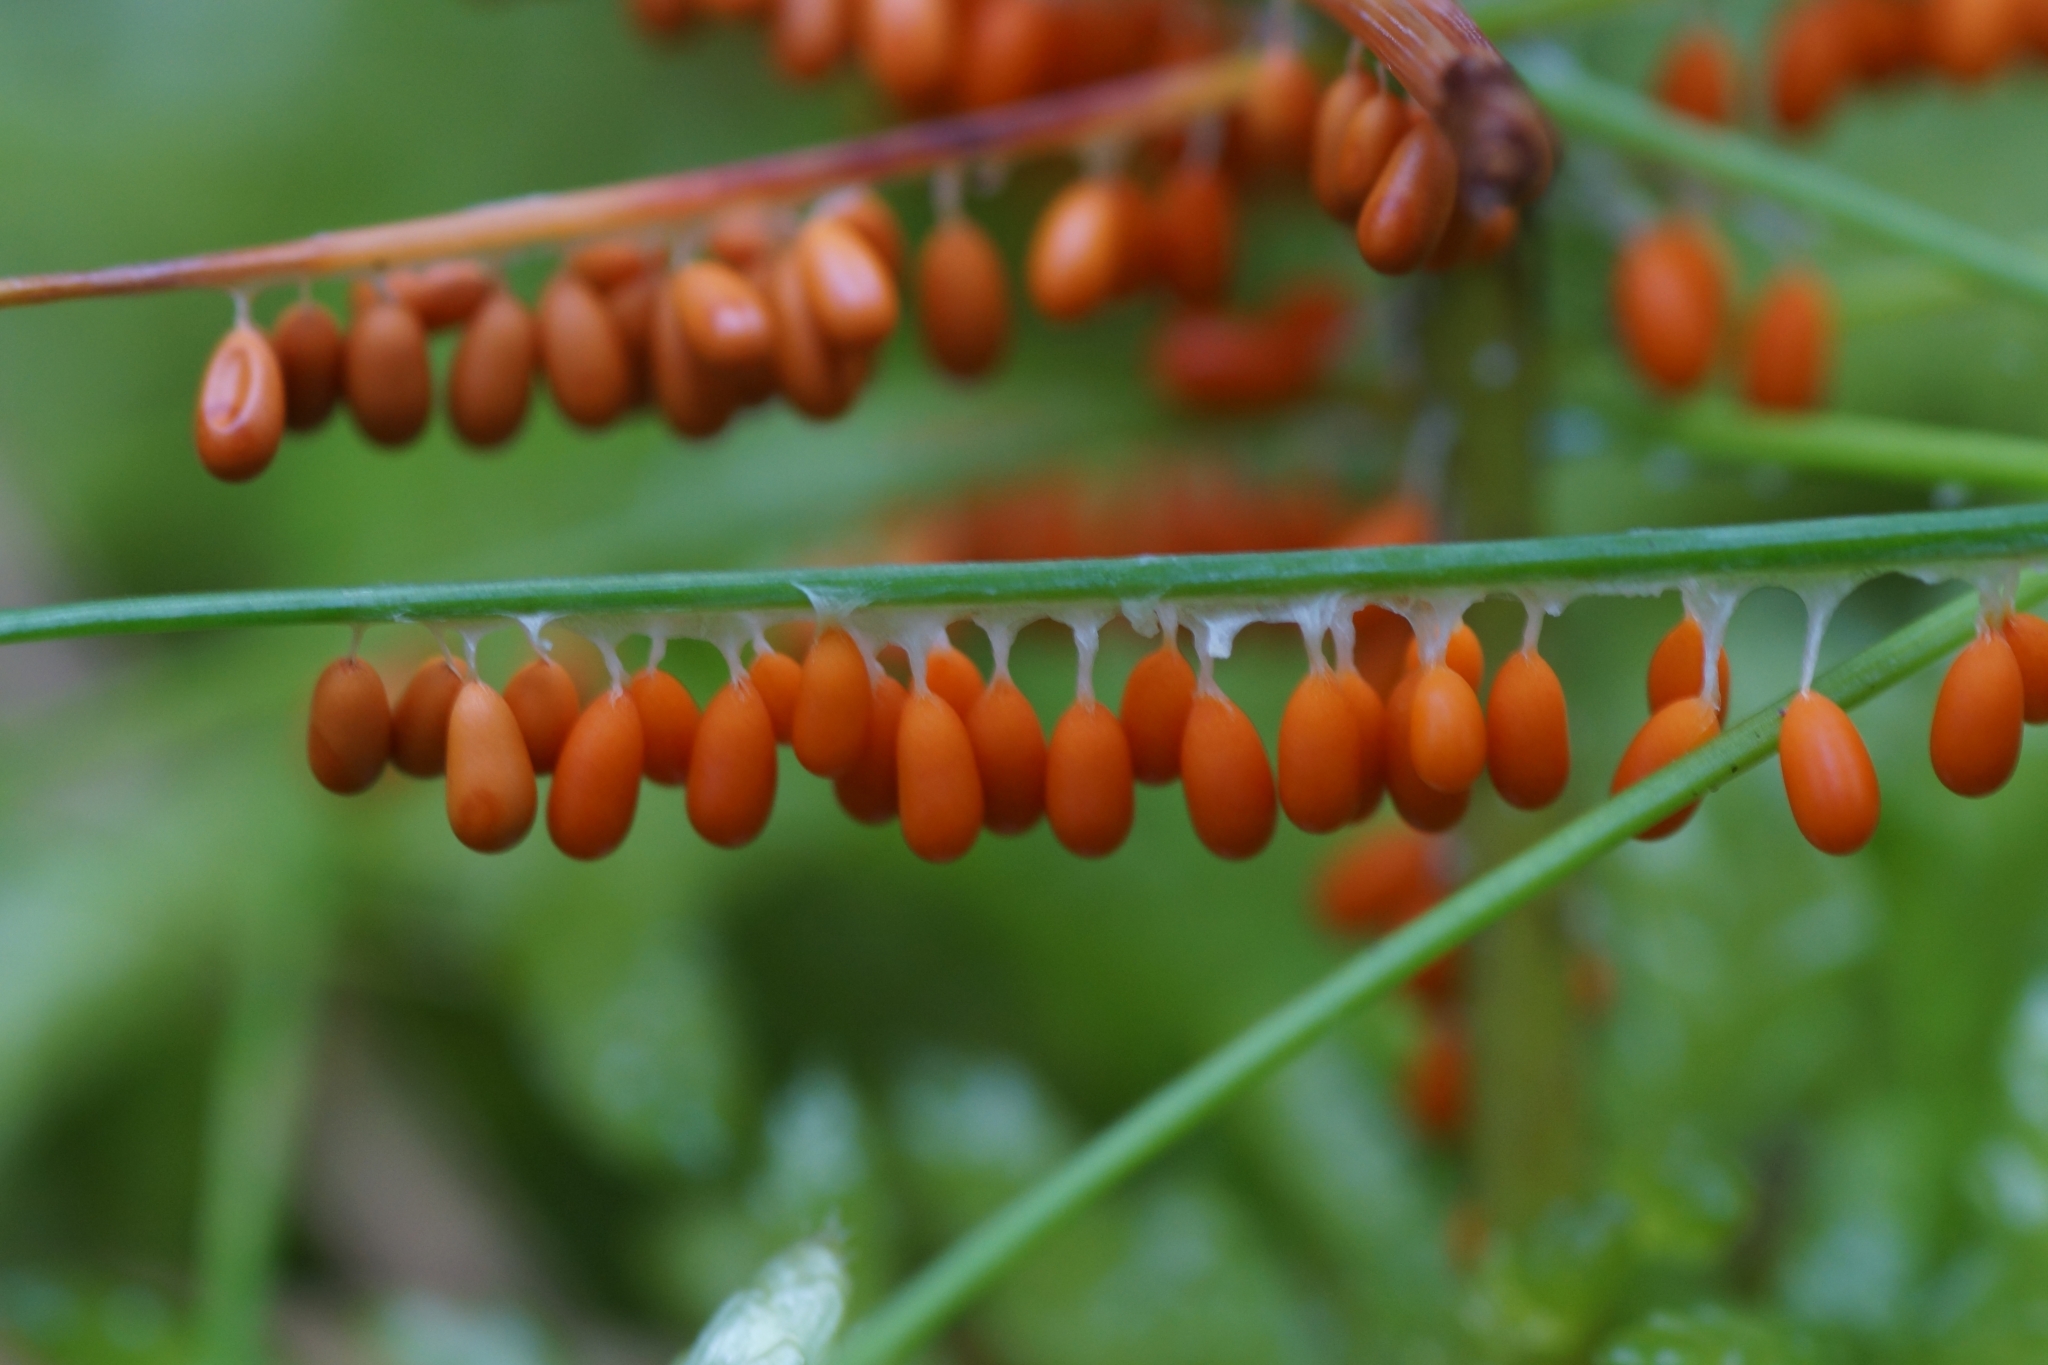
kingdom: Protozoa
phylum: Mycetozoa
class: Myxomycetes
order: Physarales
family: Physaraceae
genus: Leocarpus
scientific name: Leocarpus fragilis
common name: Insect-egg slime
